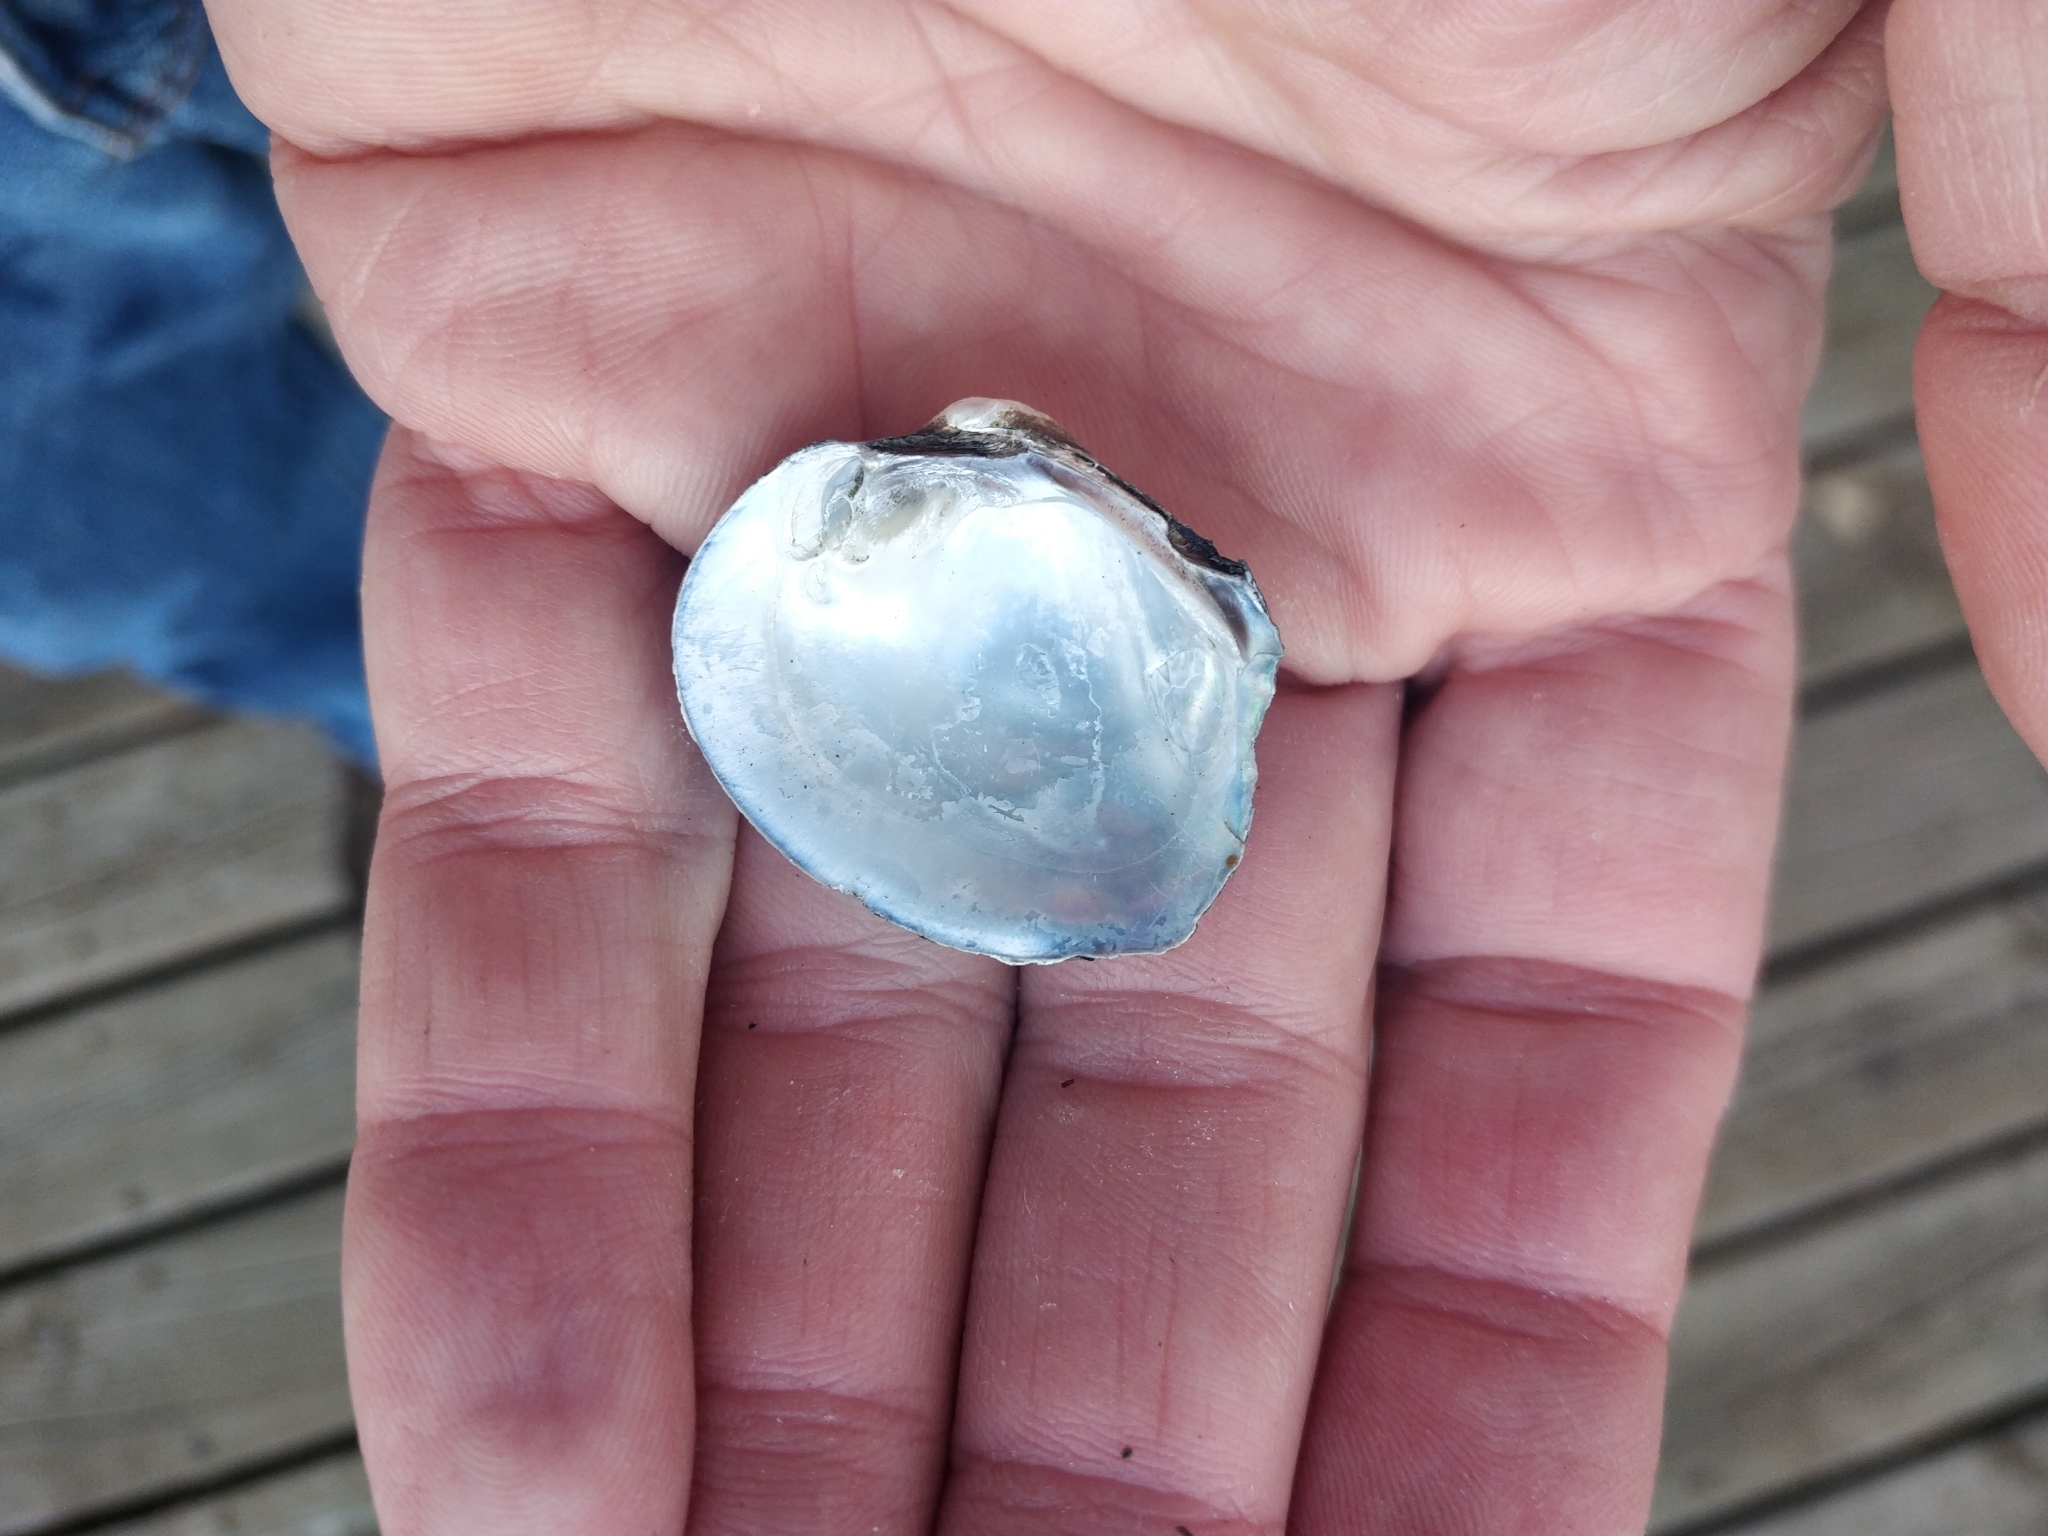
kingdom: Animalia
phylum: Mollusca
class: Bivalvia
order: Unionida
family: Unionidae
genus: Cyclonaias
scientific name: Cyclonaias pustulosa
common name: Pimpleback
